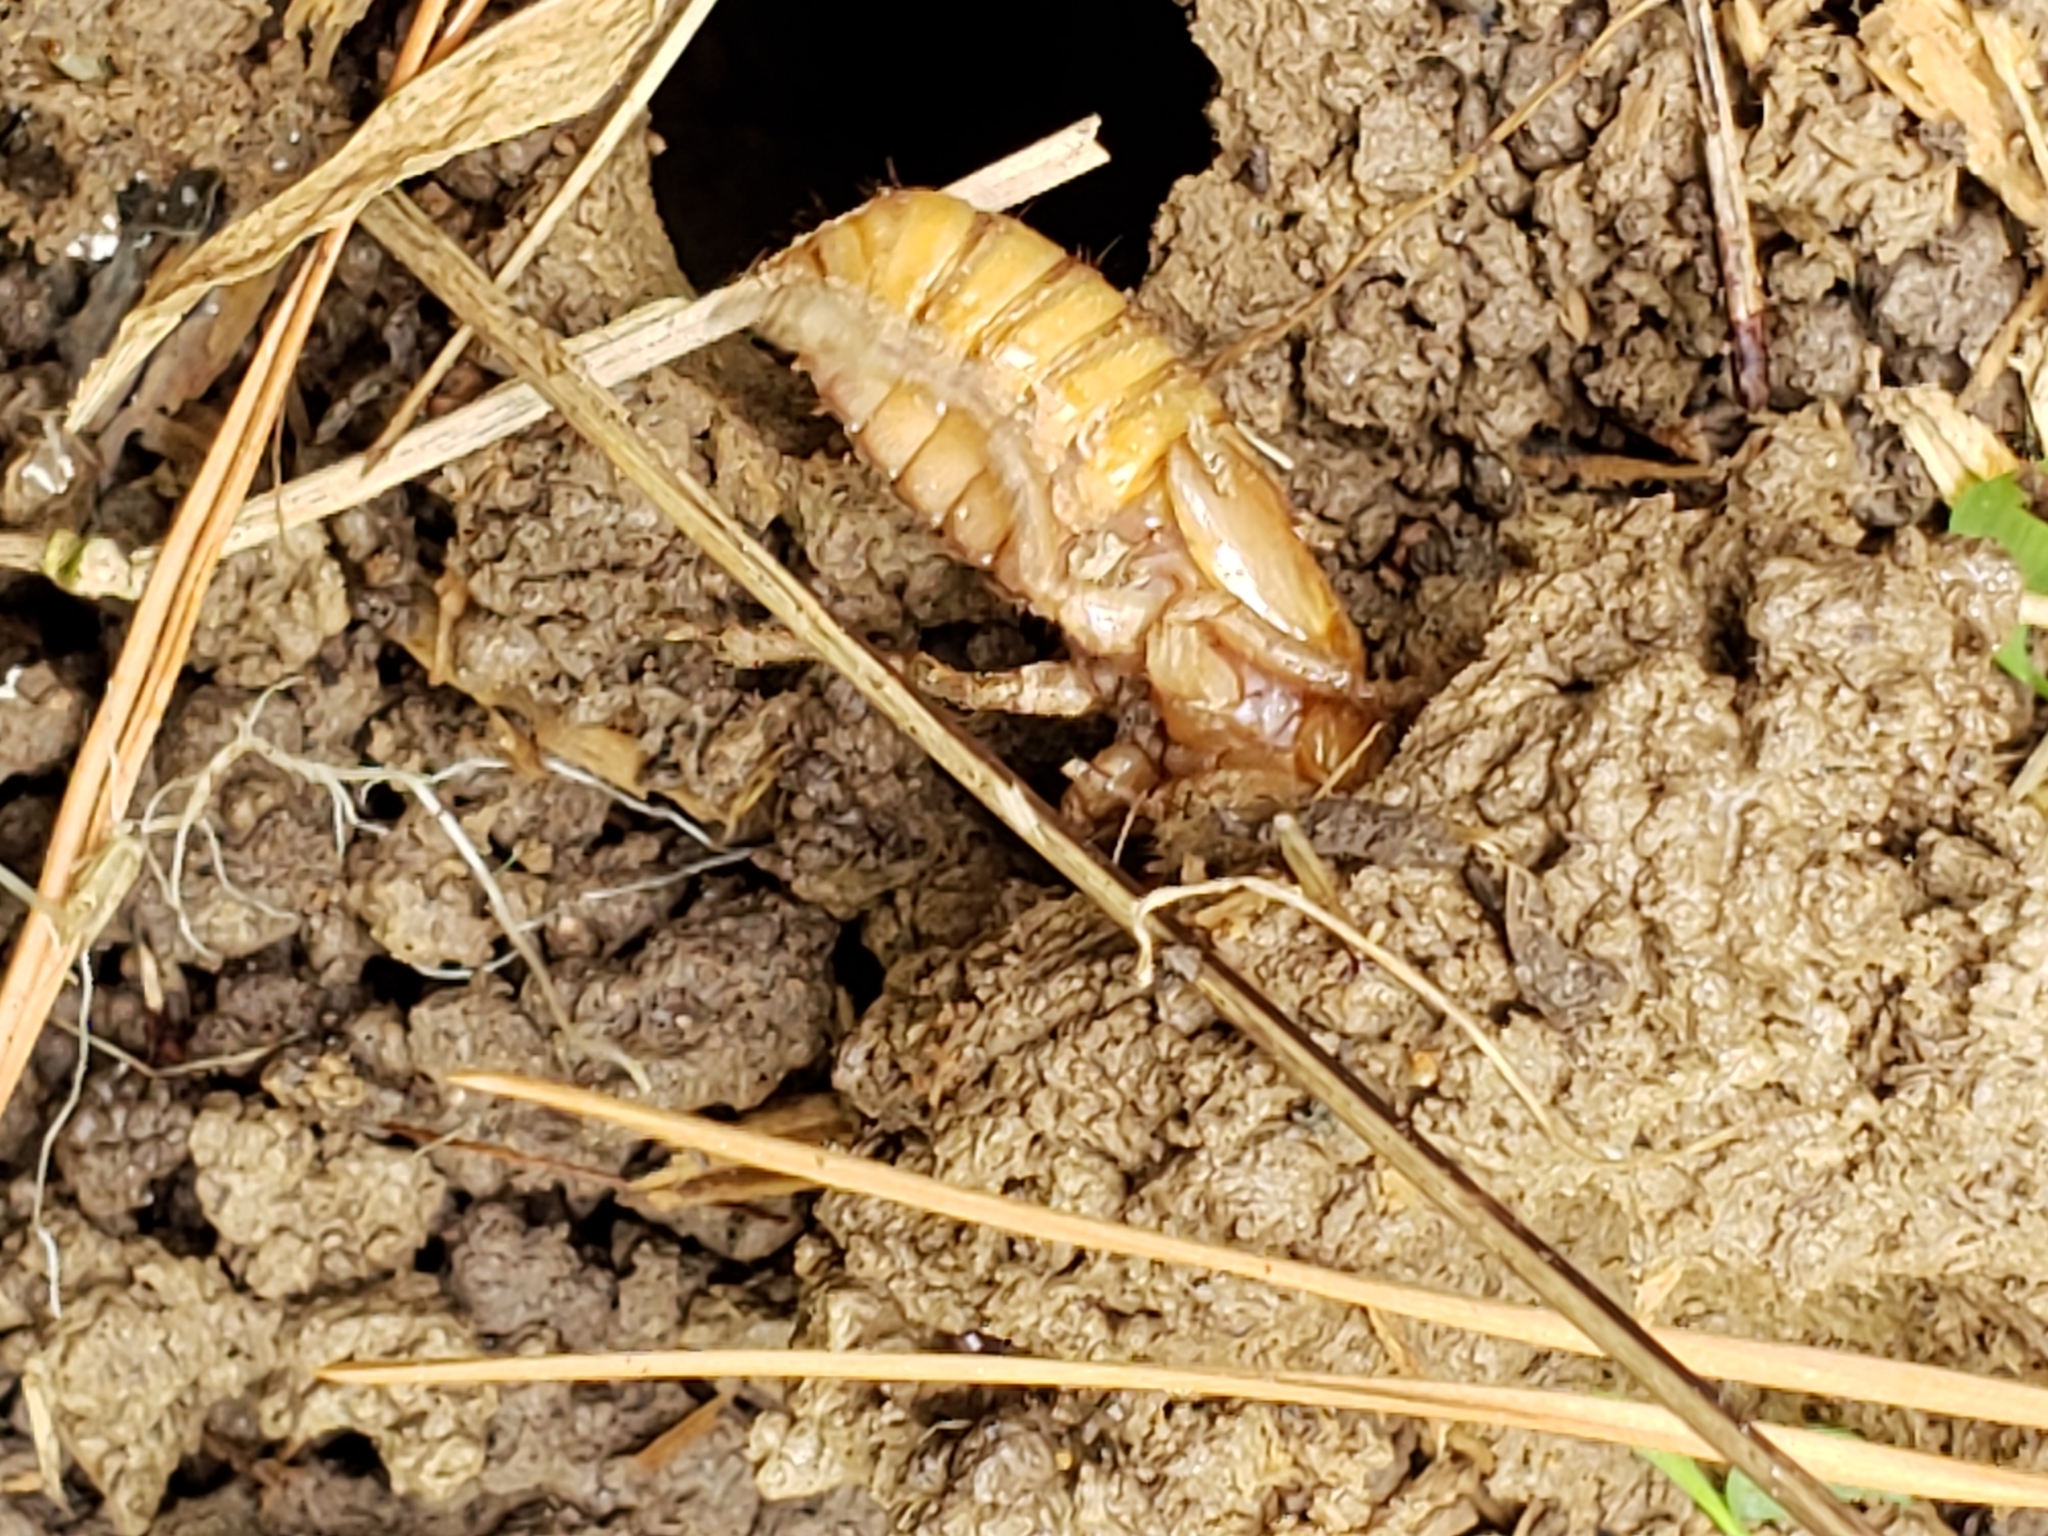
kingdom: Animalia
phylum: Arthropoda
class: Insecta
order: Hemiptera
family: Cicadidae
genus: Magicicada
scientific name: Magicicada
